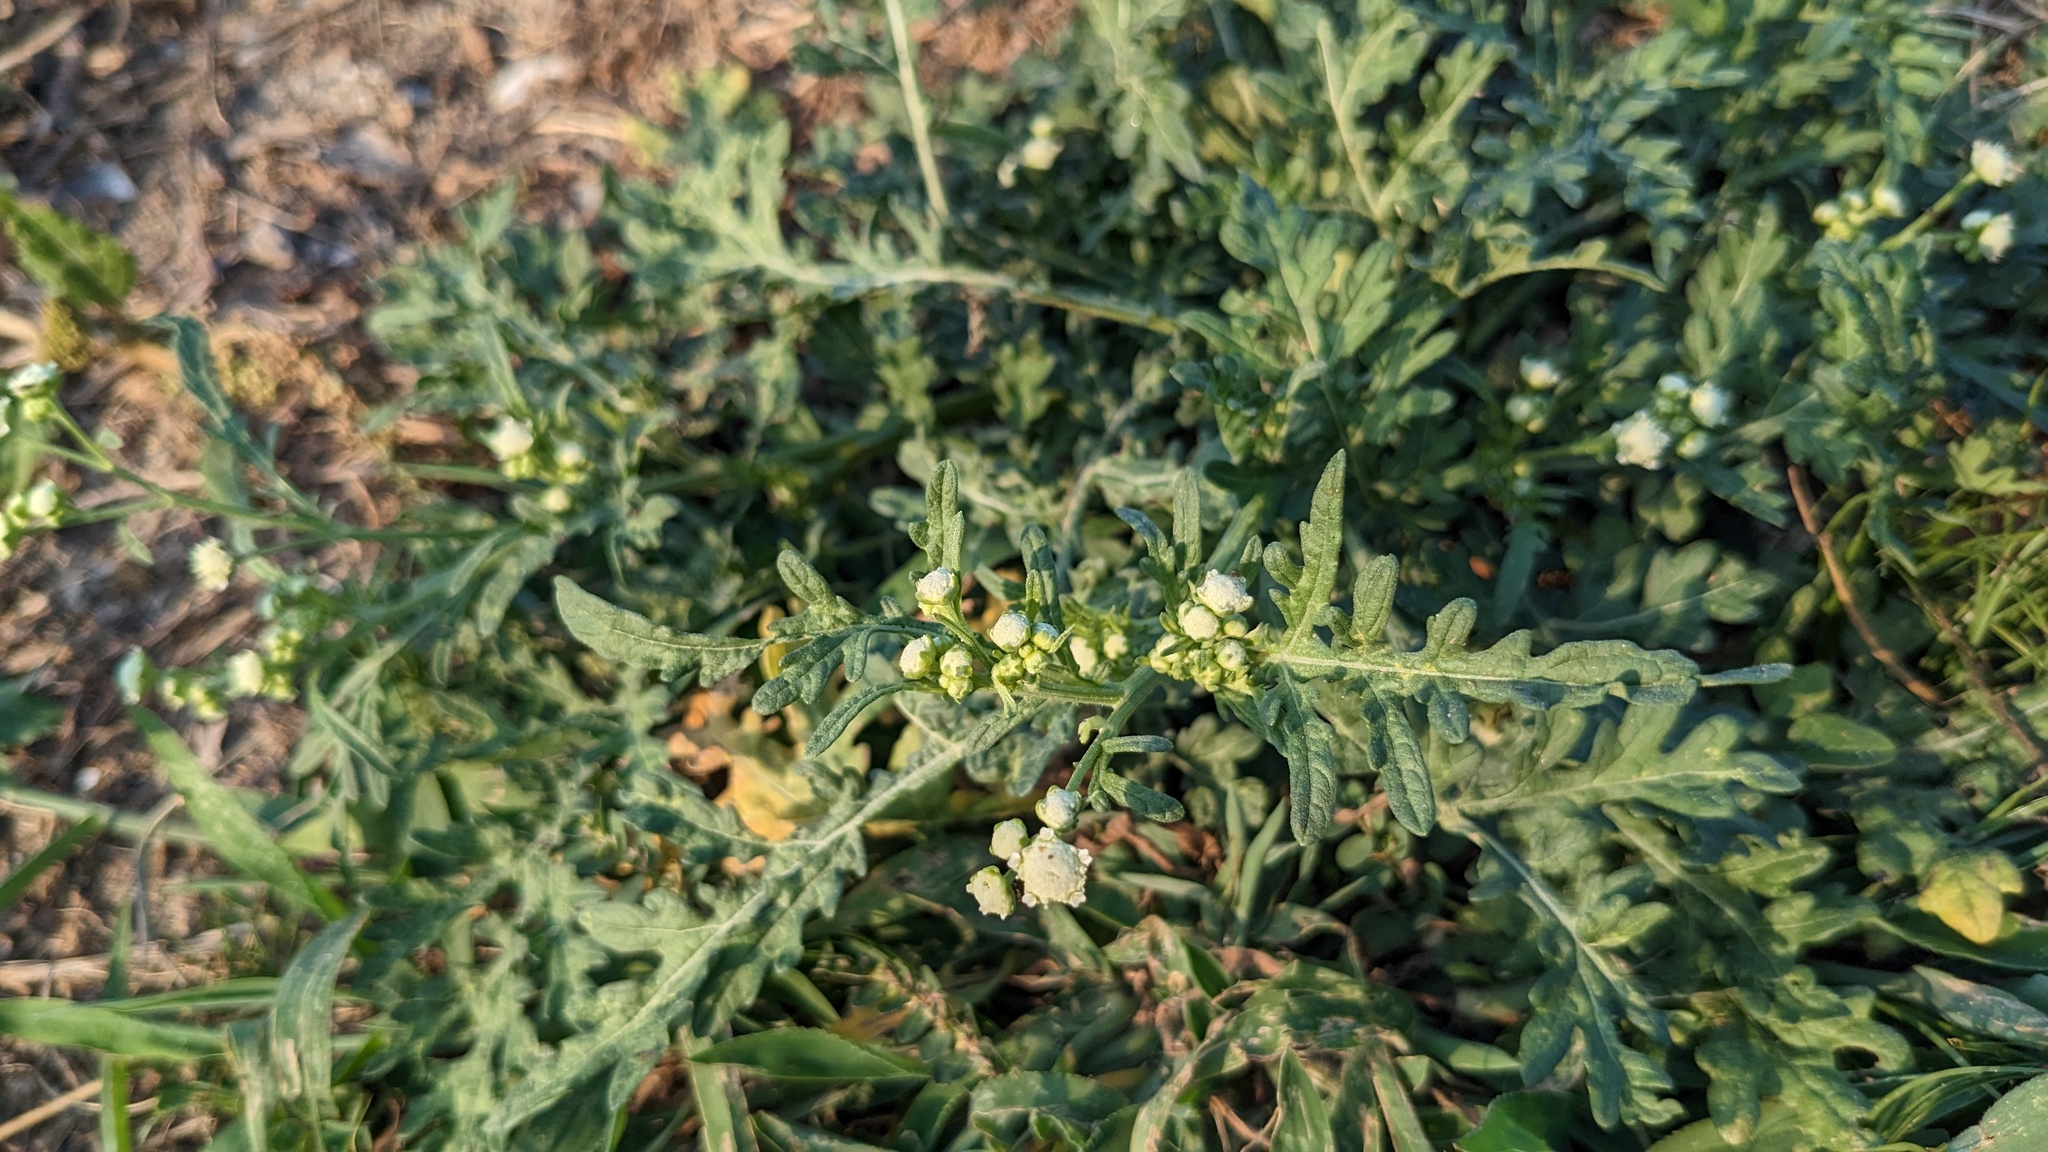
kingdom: Plantae
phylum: Tracheophyta
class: Magnoliopsida
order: Asterales
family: Asteraceae
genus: Parthenium
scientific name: Parthenium hysterophorus
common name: Santa maria feverfew
